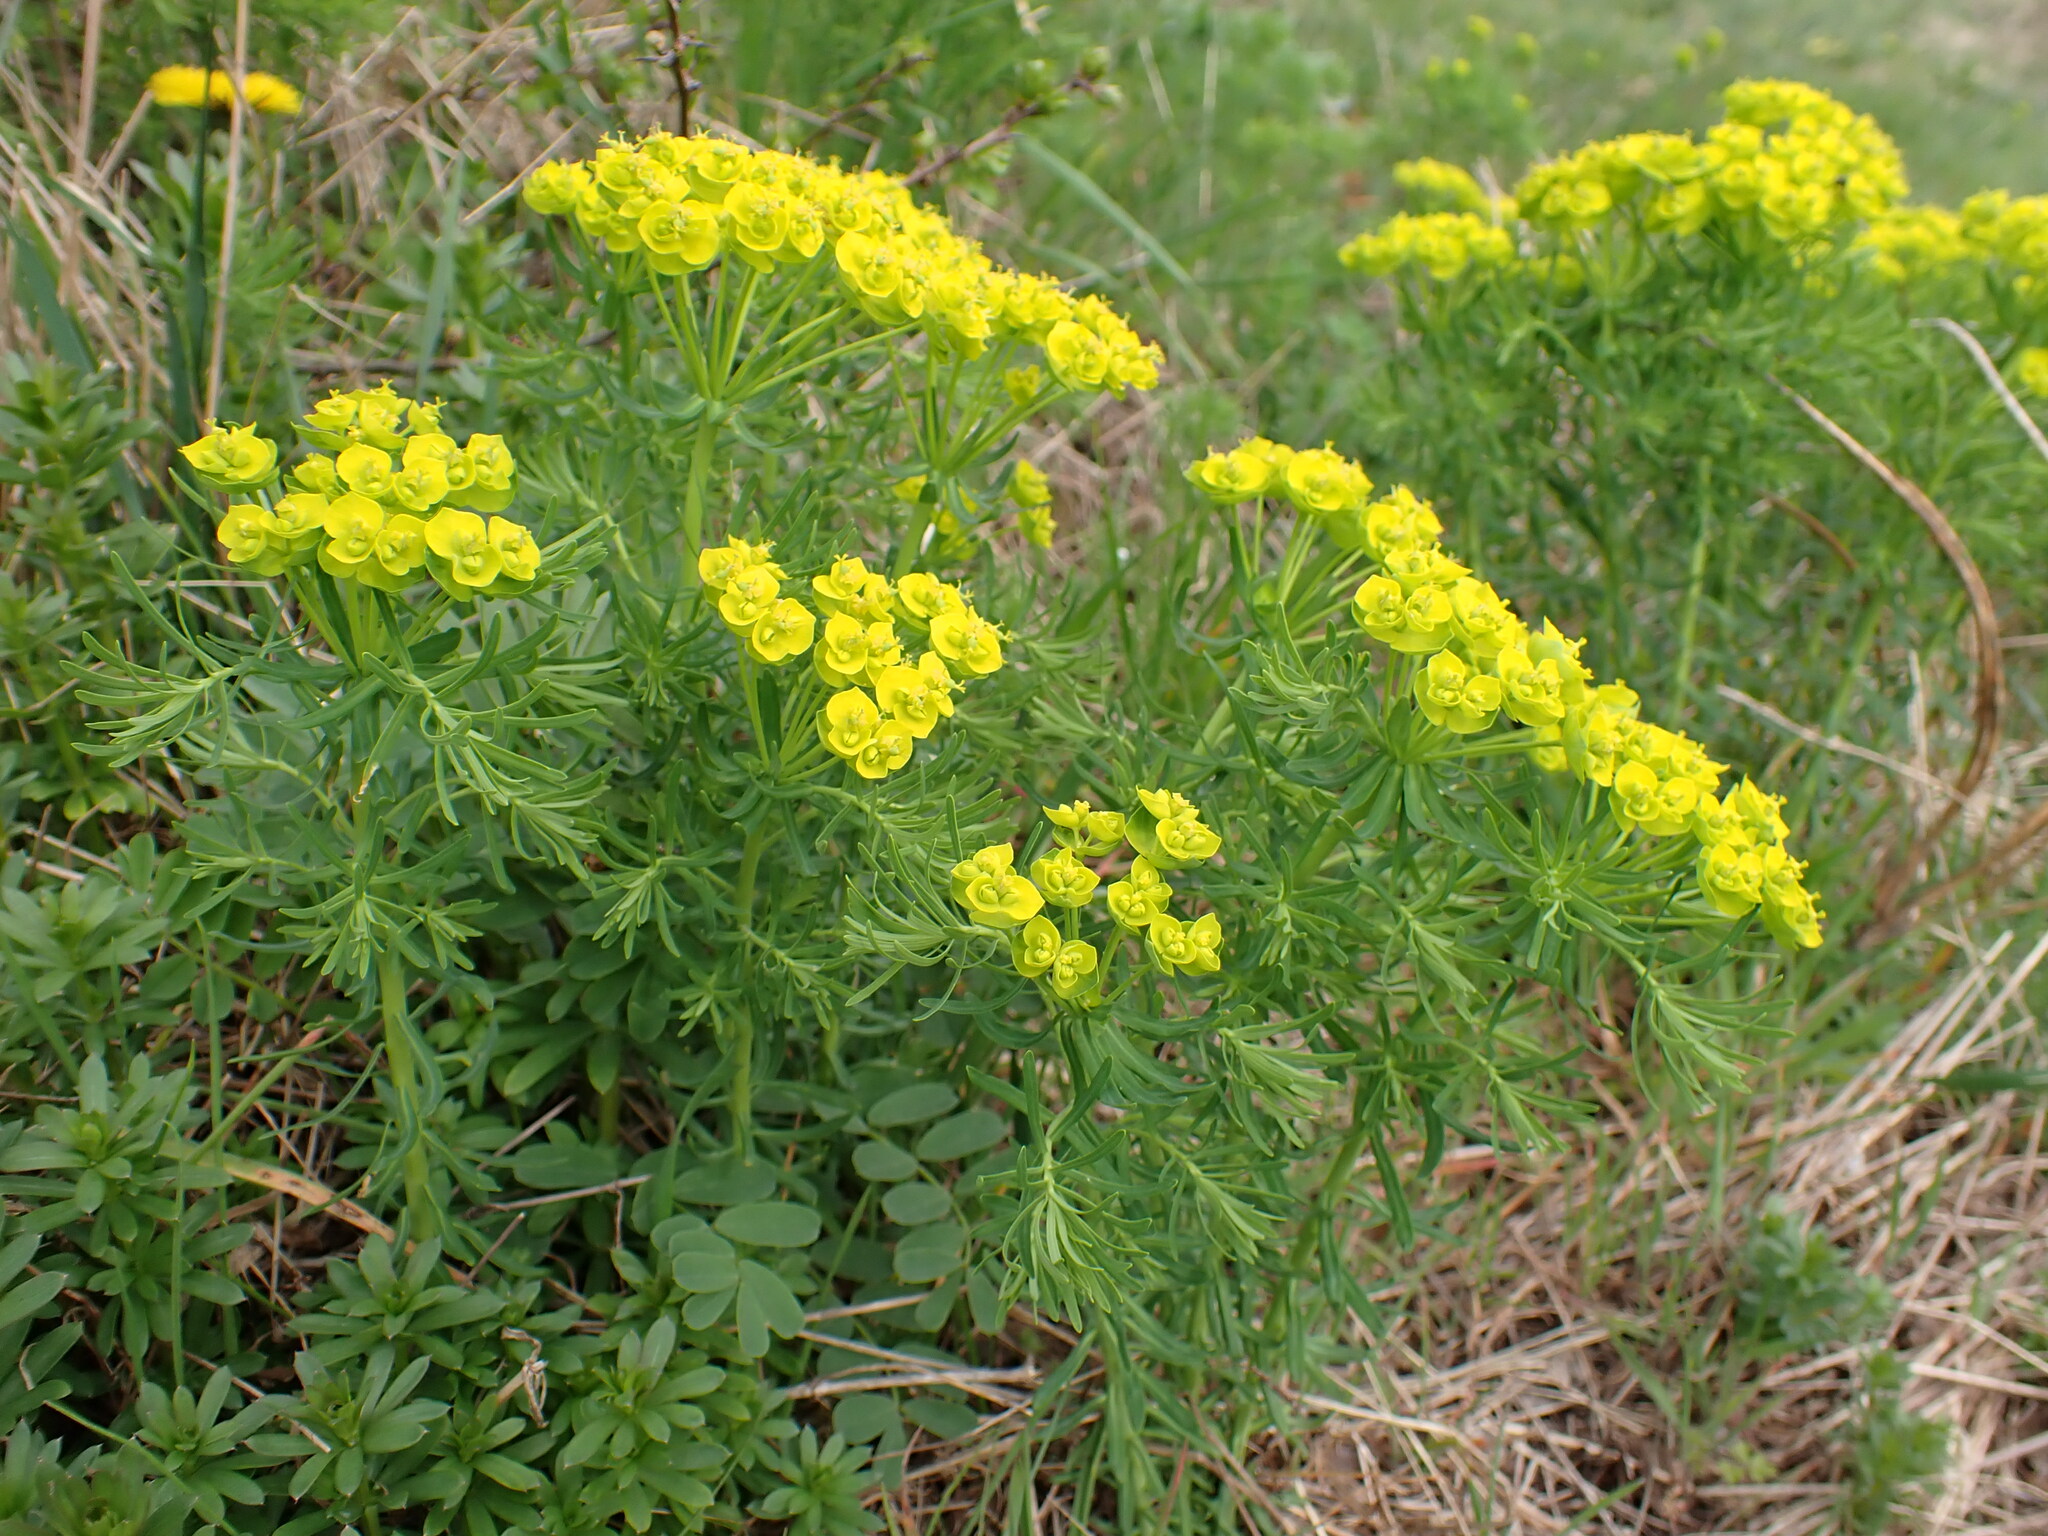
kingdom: Plantae
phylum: Tracheophyta
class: Magnoliopsida
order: Malpighiales
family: Euphorbiaceae
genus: Euphorbia
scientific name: Euphorbia cyparissias
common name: Cypress spurge
